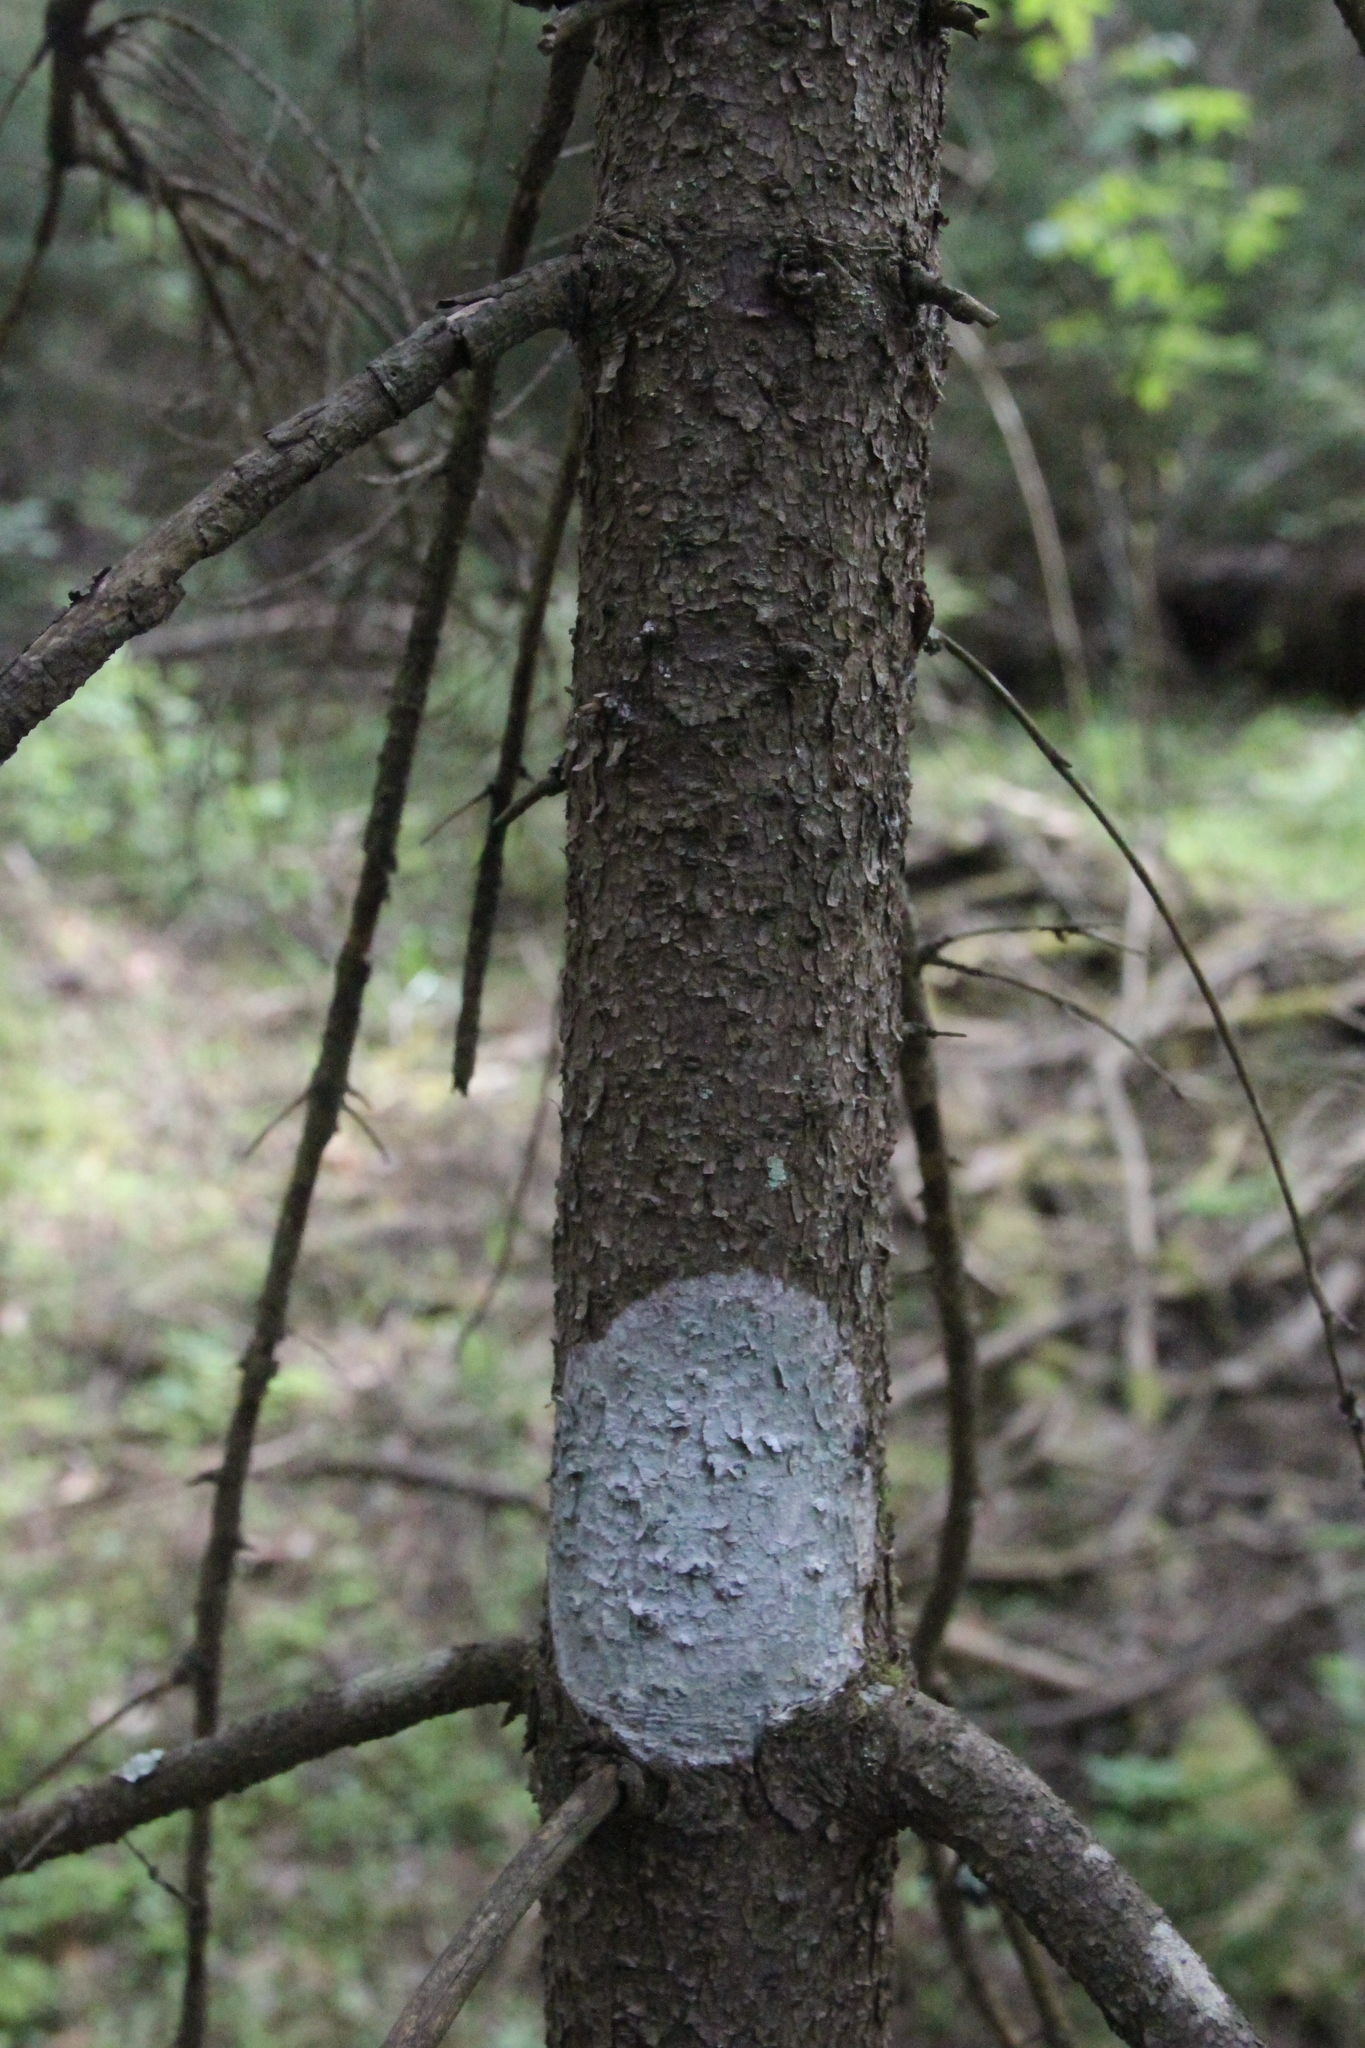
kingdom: Plantae
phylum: Tracheophyta
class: Pinopsida
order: Pinales
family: Pinaceae
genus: Picea
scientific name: Picea abies
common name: Norway spruce
